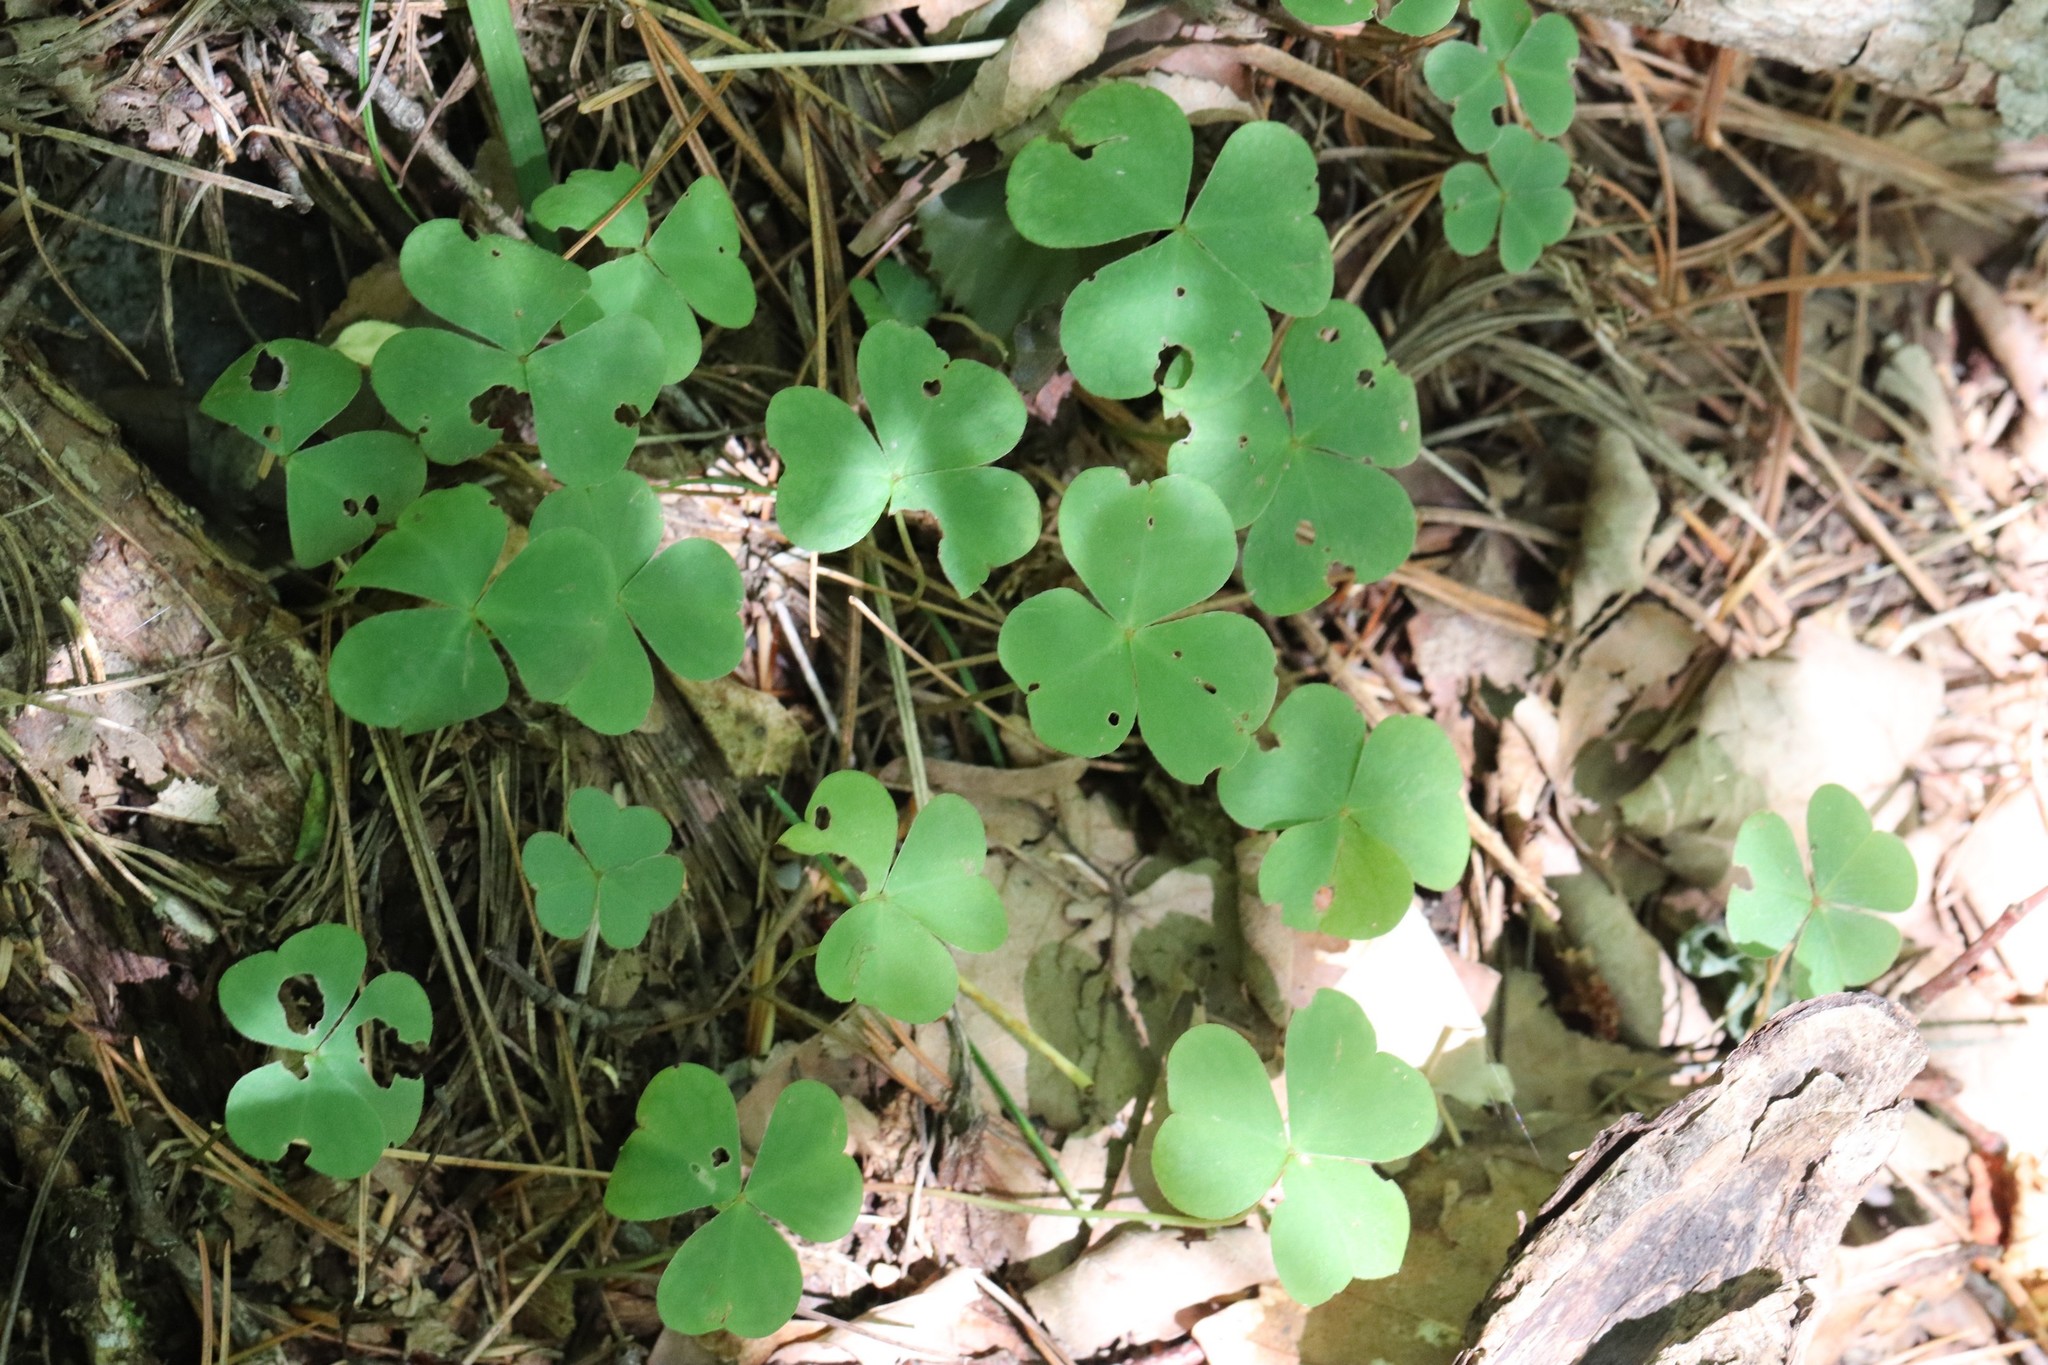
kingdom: Plantae
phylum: Tracheophyta
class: Magnoliopsida
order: Oxalidales
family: Oxalidaceae
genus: Oxalis
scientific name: Oxalis acetosella
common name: Wood-sorrel
